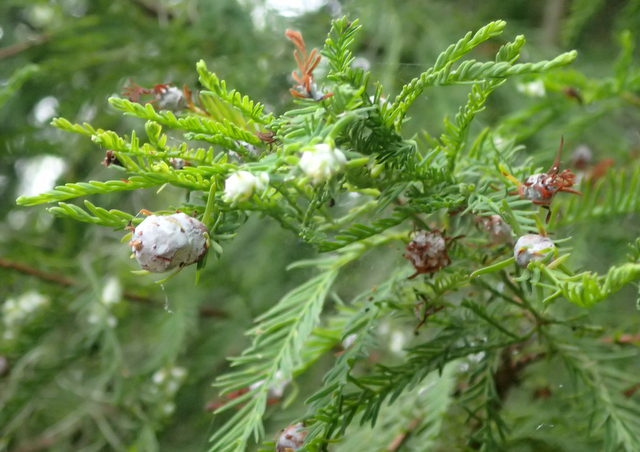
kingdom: Animalia
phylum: Arthropoda
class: Insecta
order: Diptera
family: Cecidomyiidae
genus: Taxodiomyia
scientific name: Taxodiomyia cupressiananassa
